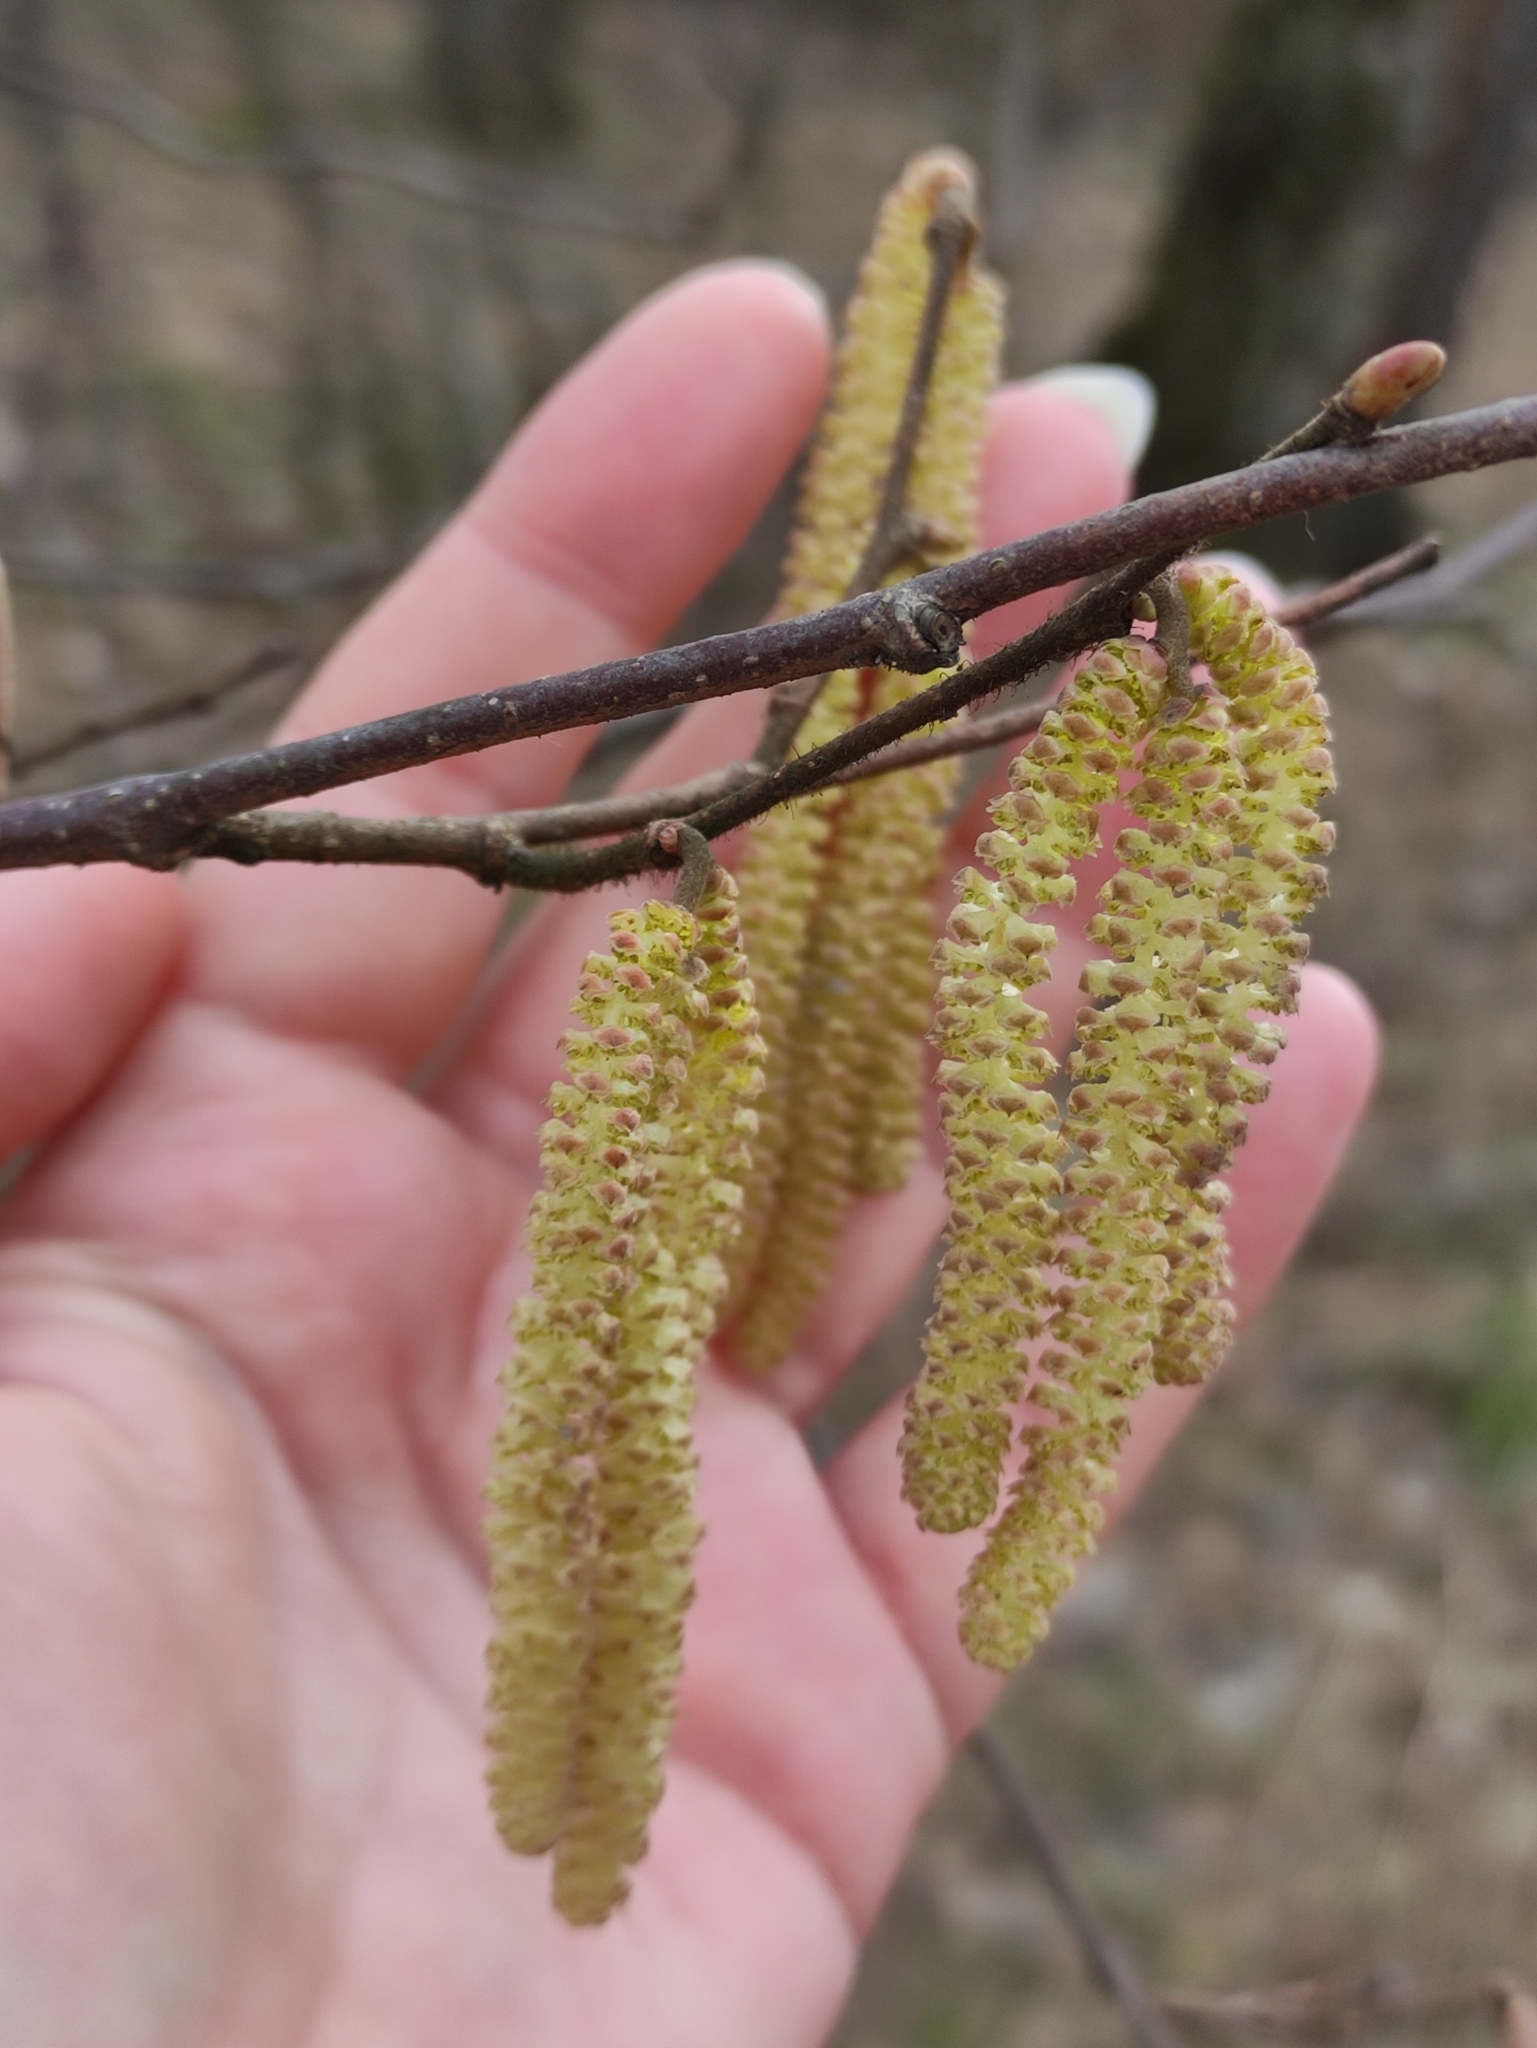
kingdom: Plantae
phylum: Tracheophyta
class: Magnoliopsida
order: Fagales
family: Betulaceae
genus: Corylus
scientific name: Corylus avellana
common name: European hazel
